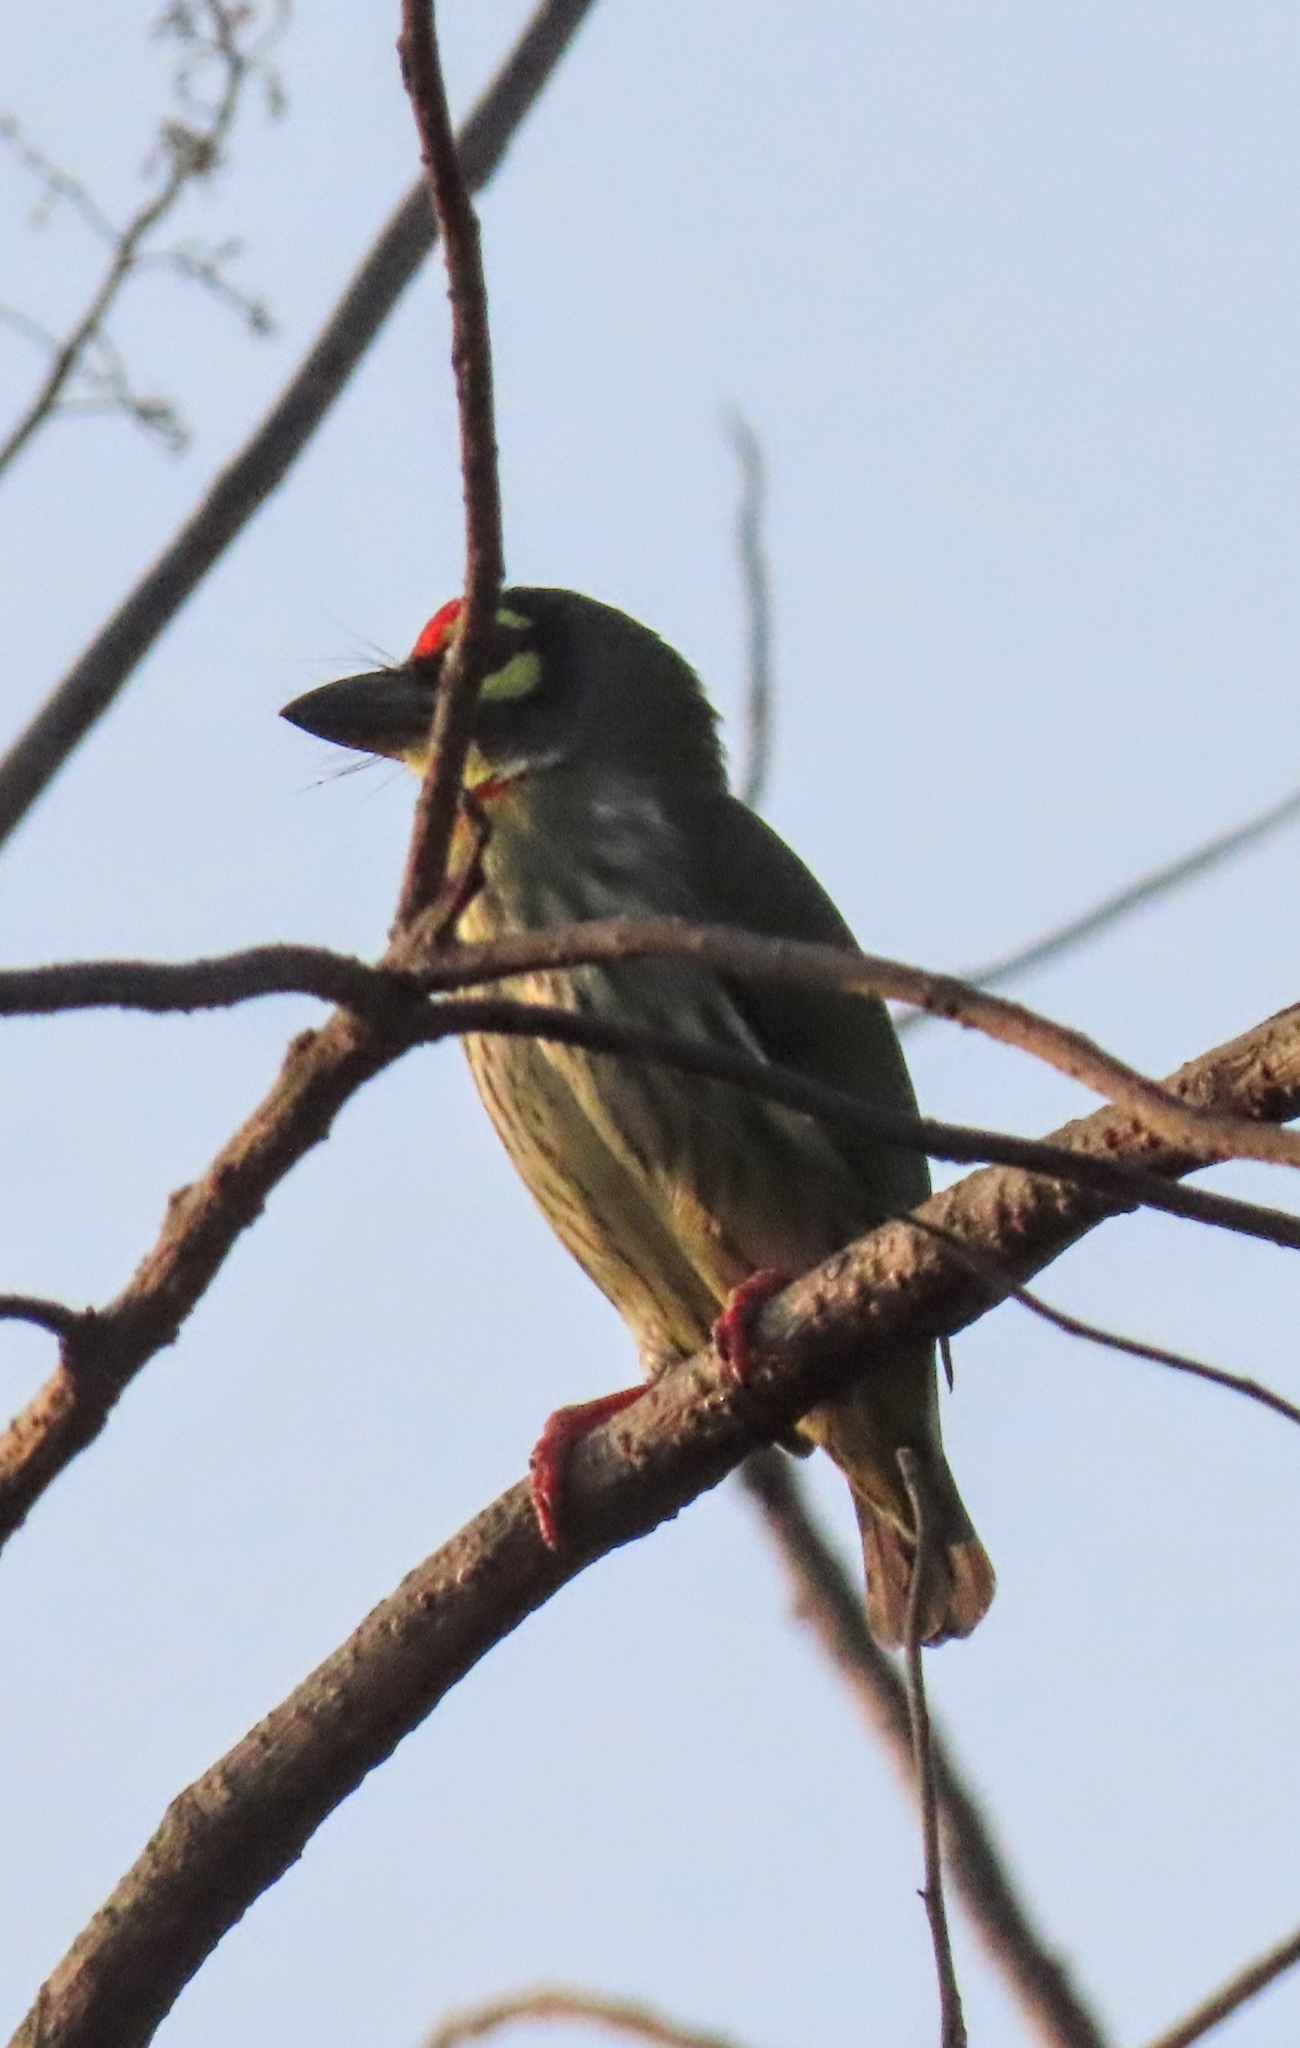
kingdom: Animalia
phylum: Chordata
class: Aves
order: Piciformes
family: Megalaimidae
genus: Psilopogon
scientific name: Psilopogon haemacephalus
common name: Coppersmith barbet
